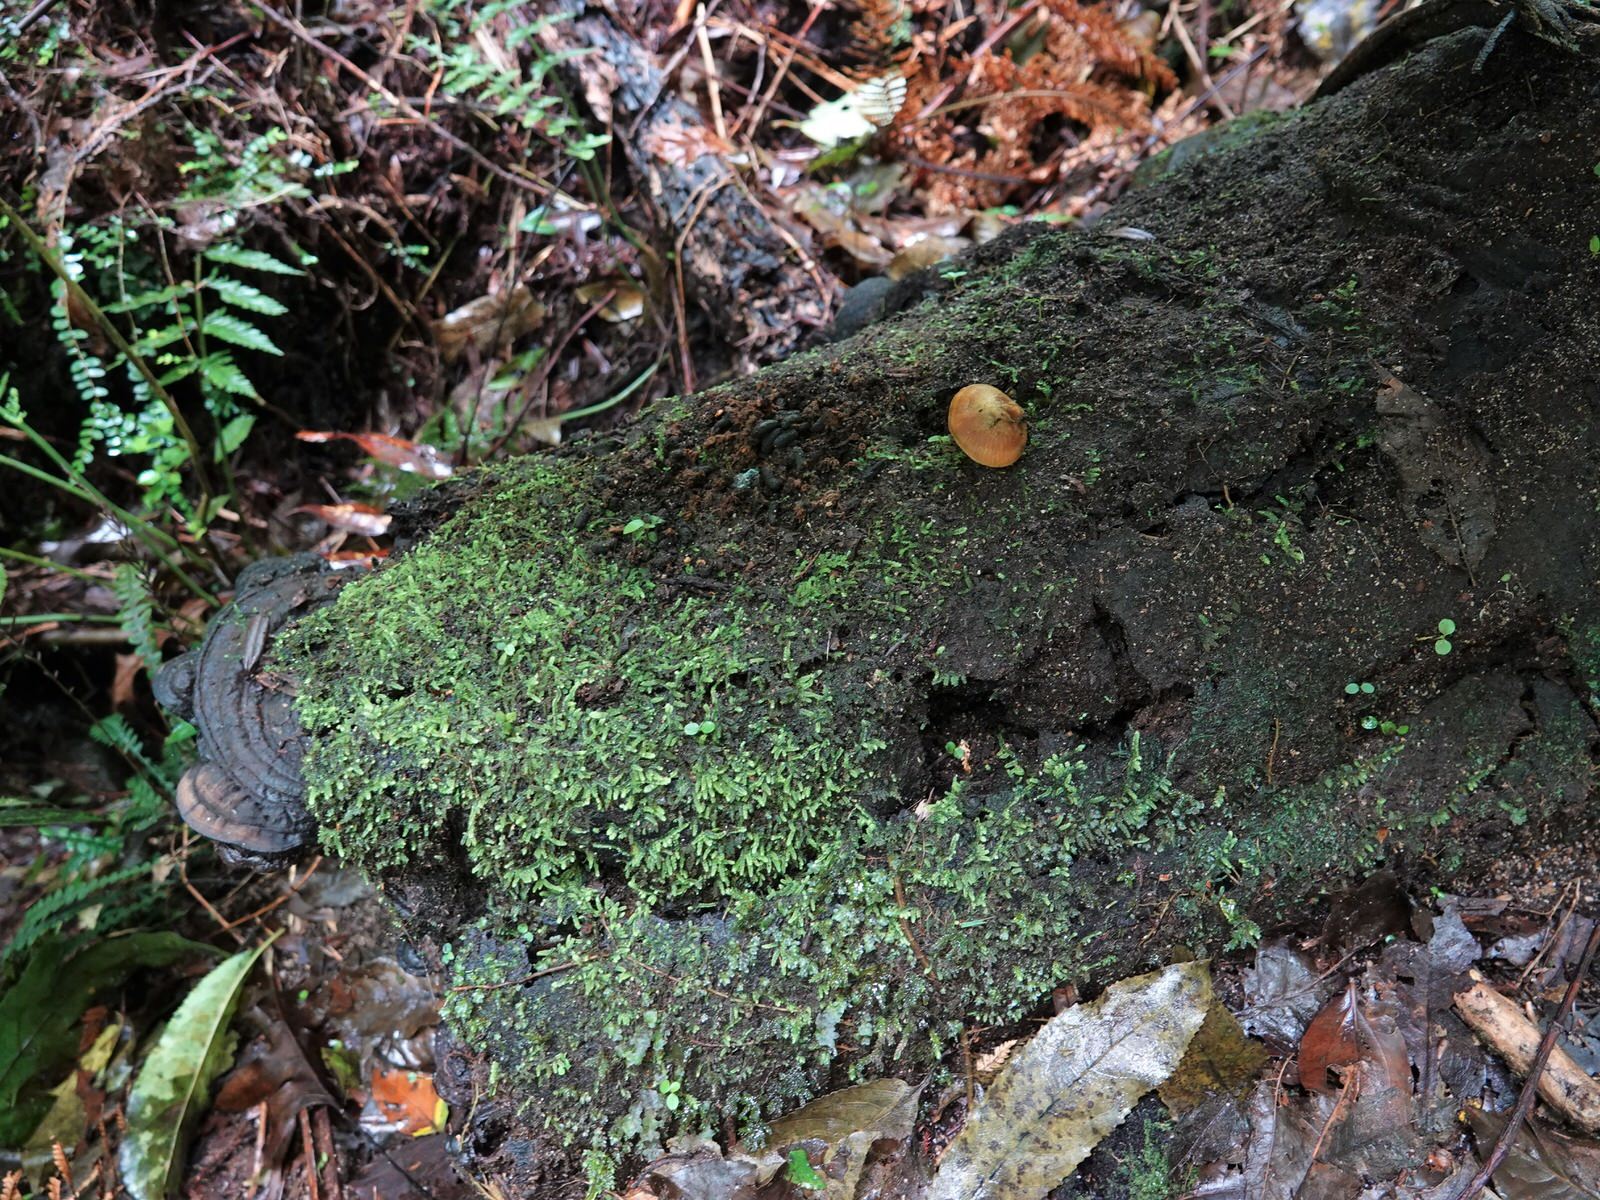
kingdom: Fungi
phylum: Basidiomycota
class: Agaricomycetes
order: Agaricales
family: Mycenaceae
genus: Heimiomyces
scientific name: Heimiomyces velutipes
